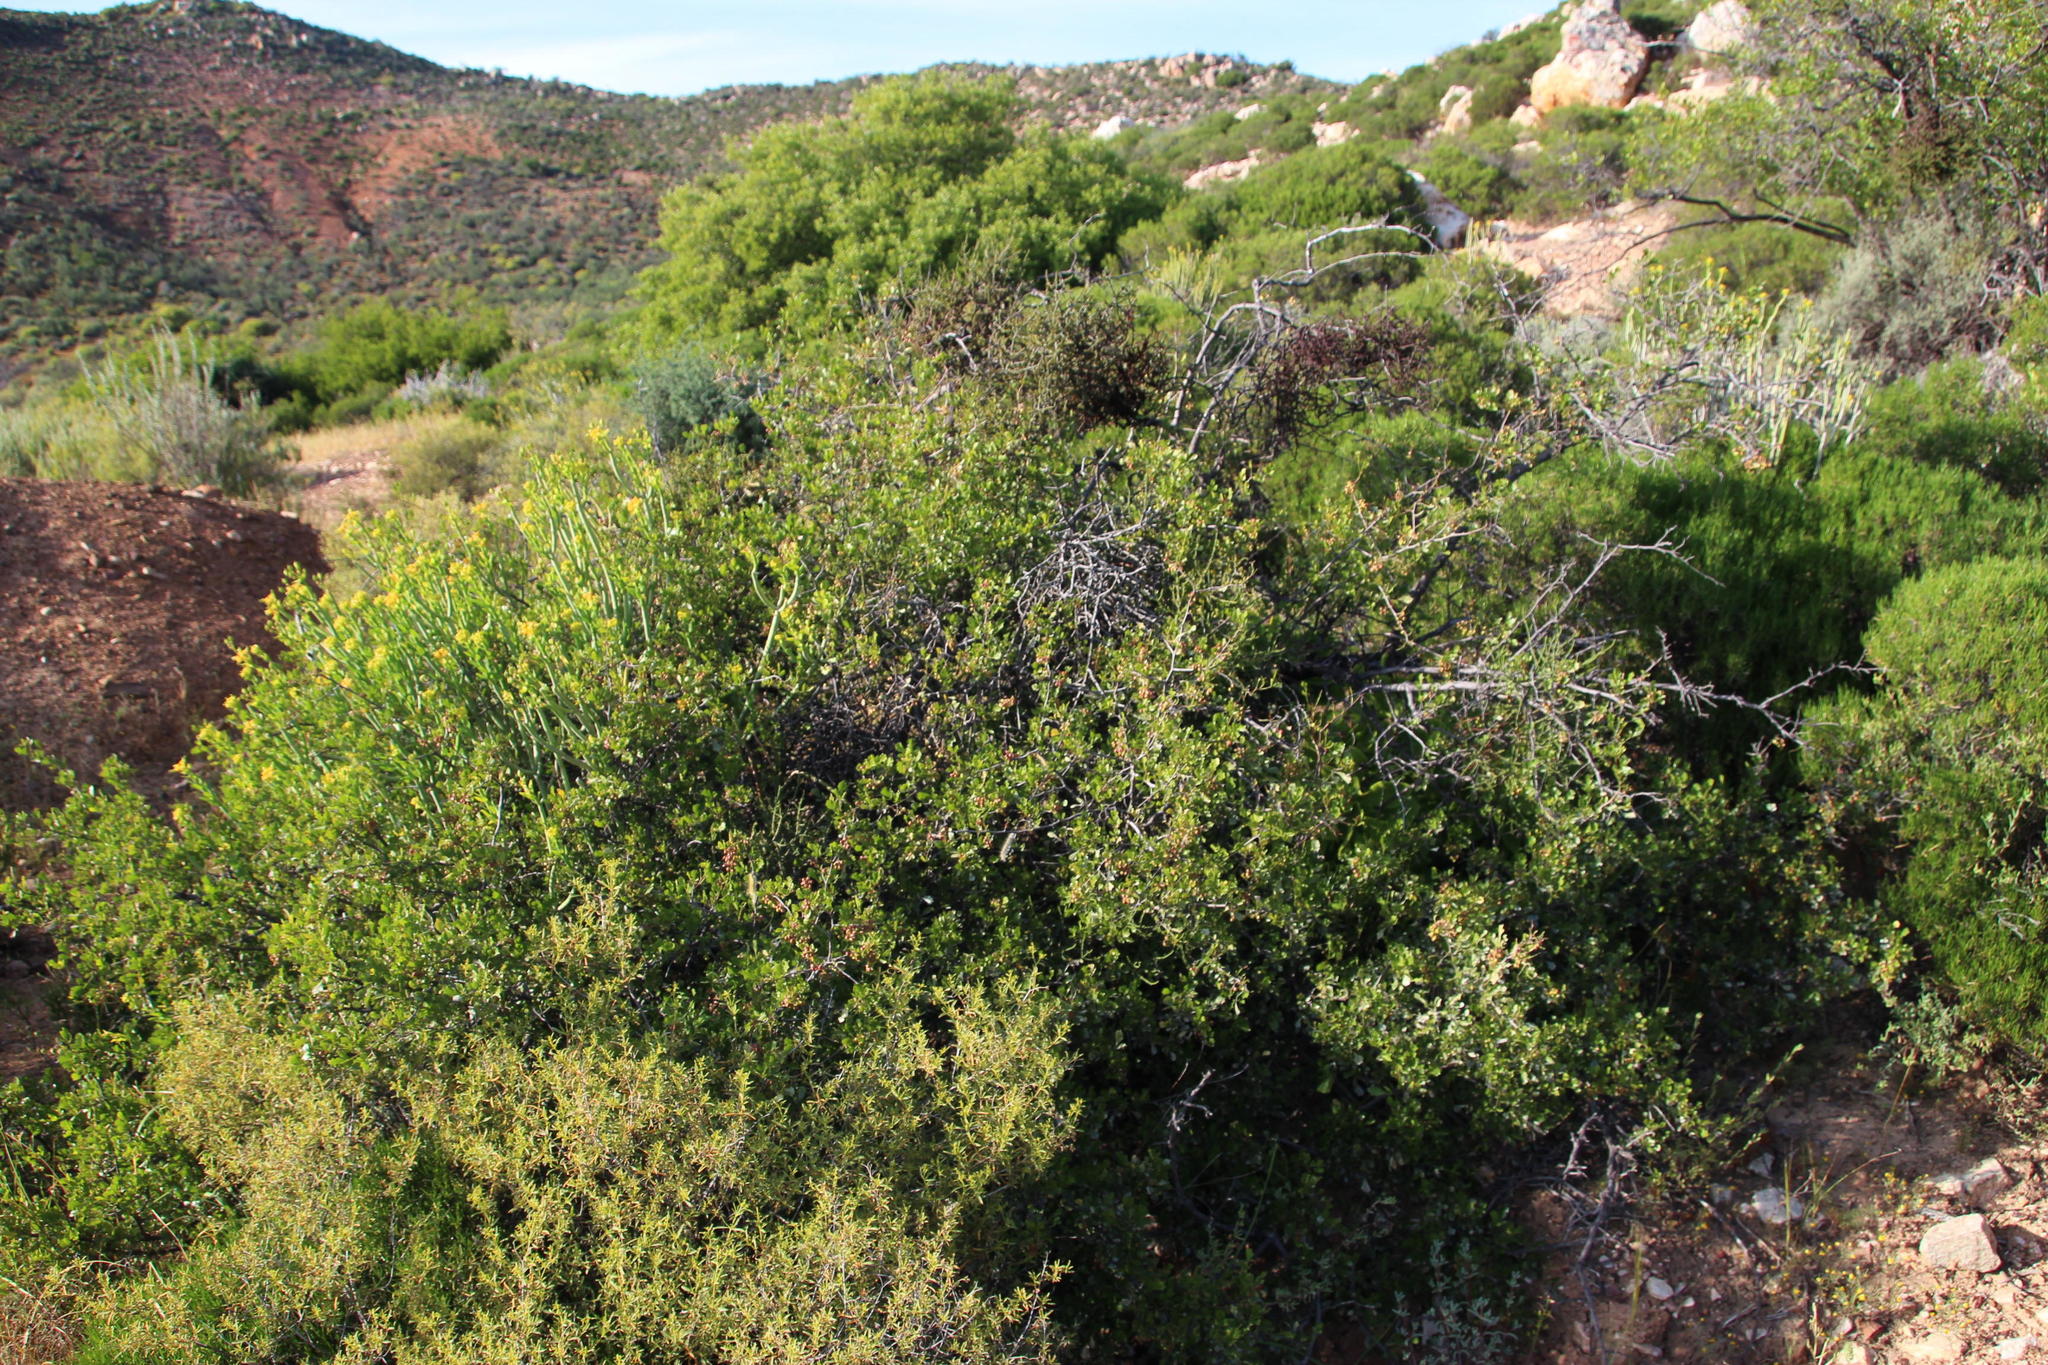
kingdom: Plantae
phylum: Tracheophyta
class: Magnoliopsida
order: Sapindales
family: Anacardiaceae
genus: Searsia
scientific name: Searsia undulata
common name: Namaqua kunibush
